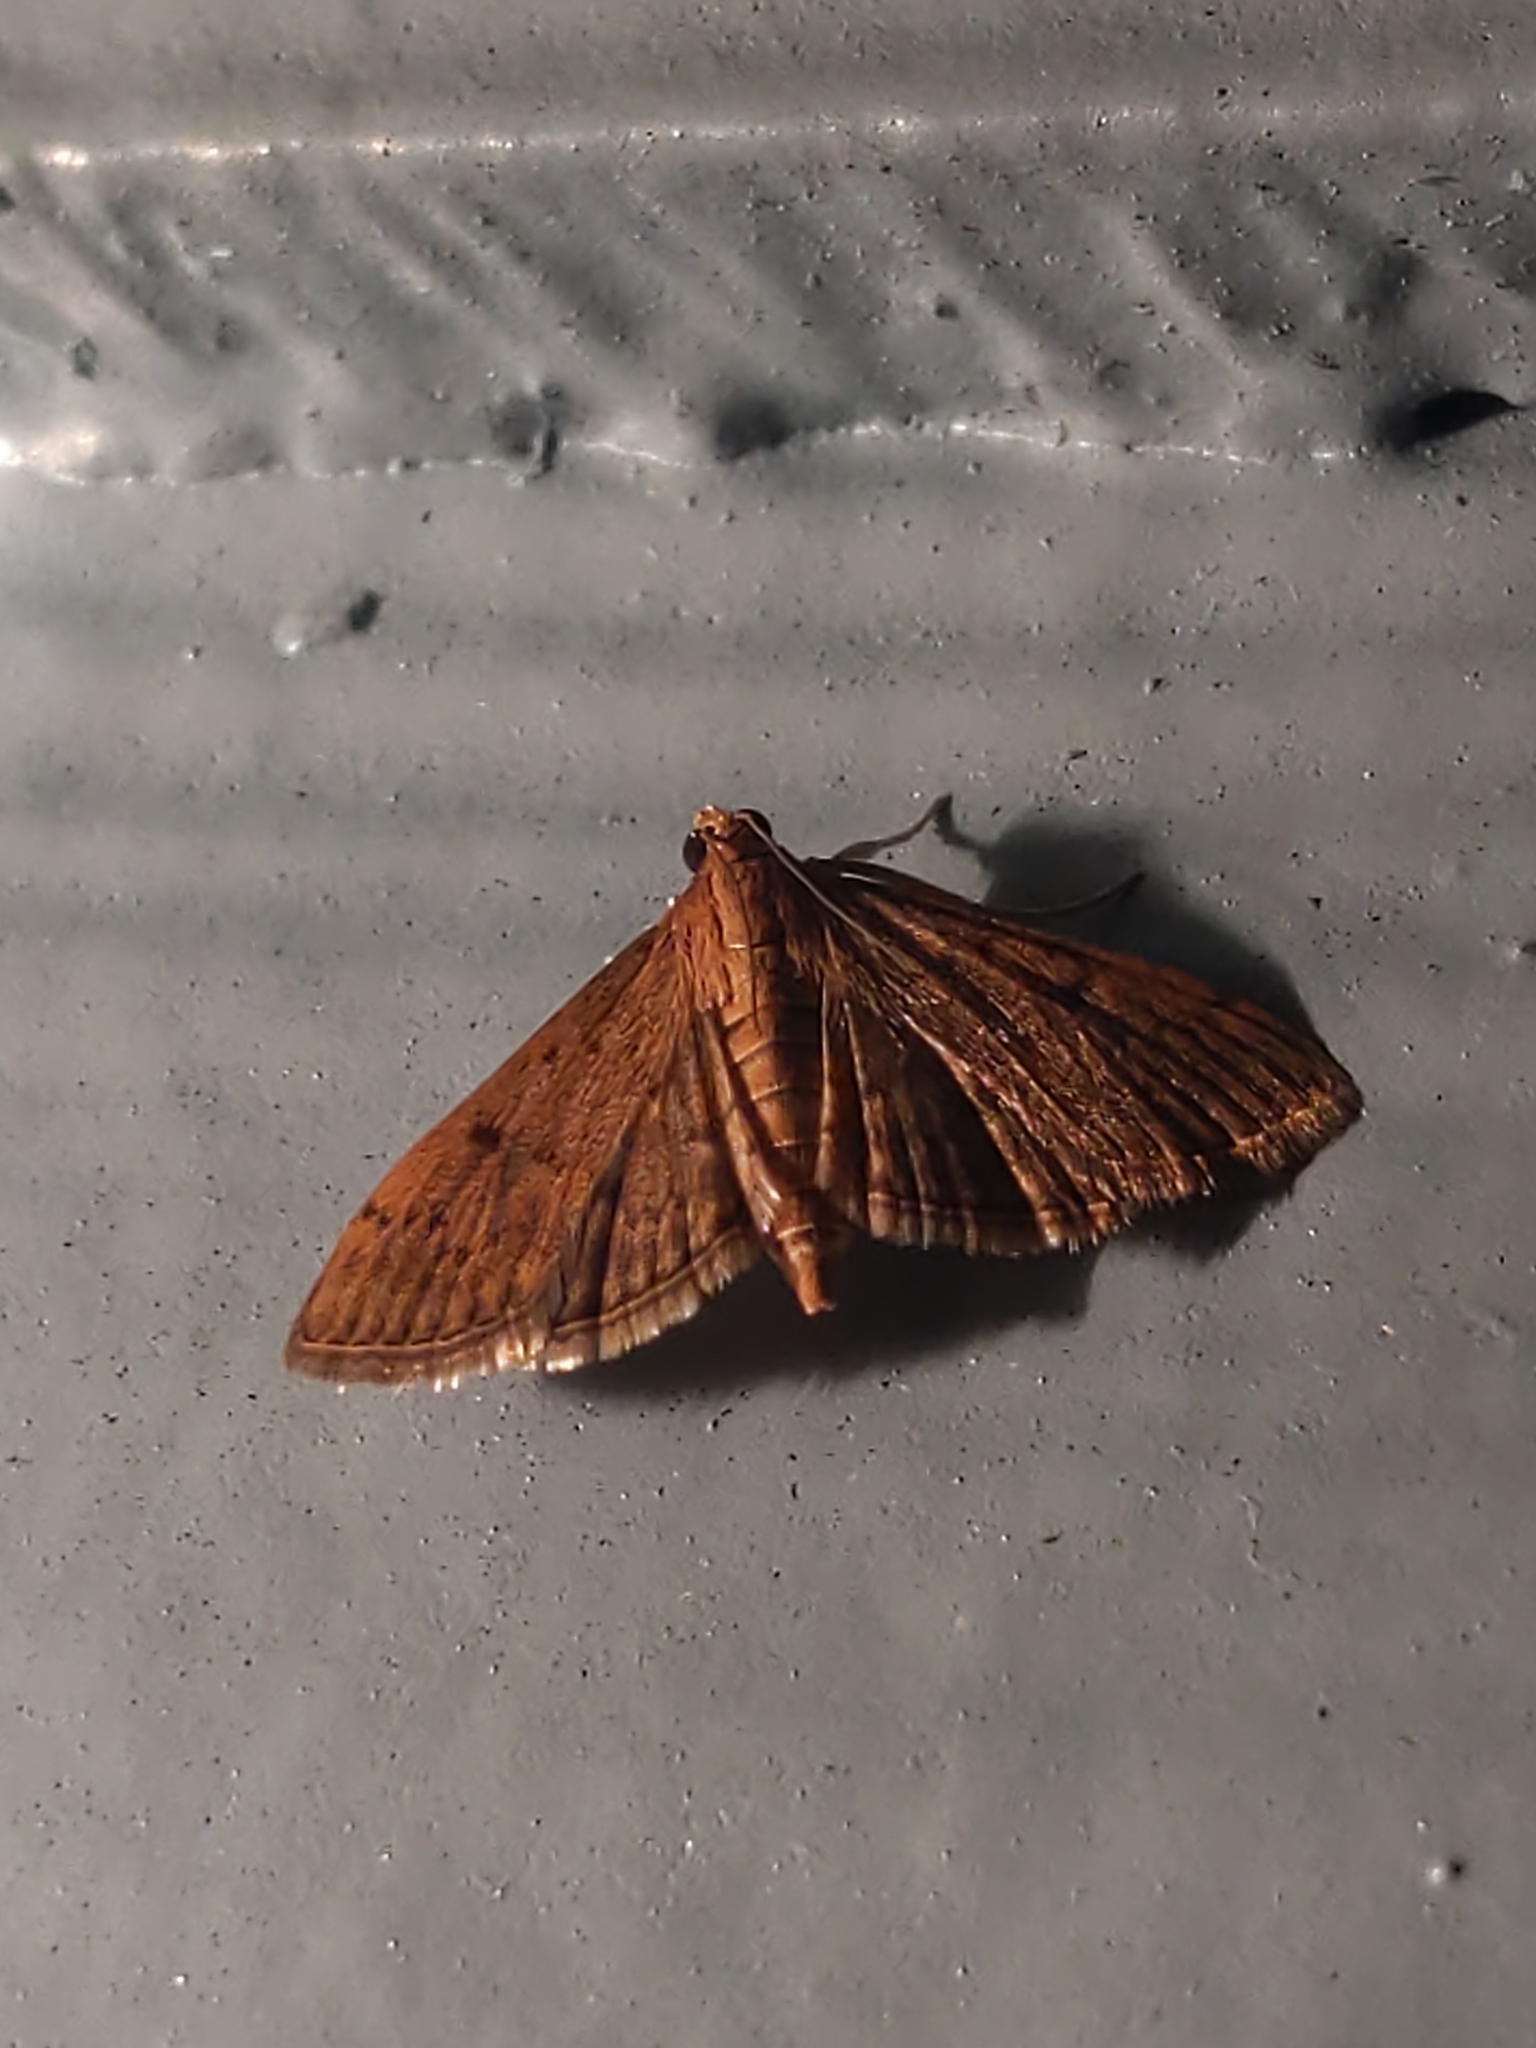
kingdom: Animalia
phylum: Arthropoda
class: Insecta
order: Lepidoptera
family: Crambidae
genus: Herpetogramma
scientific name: Herpetogramma phaeopteralis
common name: Dusky herpetogramma moth
